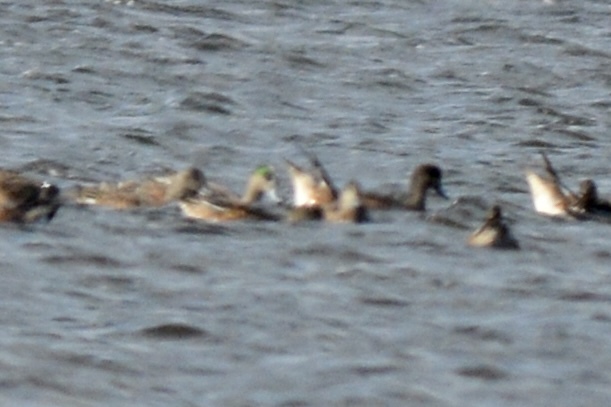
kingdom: Animalia
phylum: Chordata
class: Aves
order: Anseriformes
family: Anatidae
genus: Mareca
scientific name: Mareca americana
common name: American wigeon
